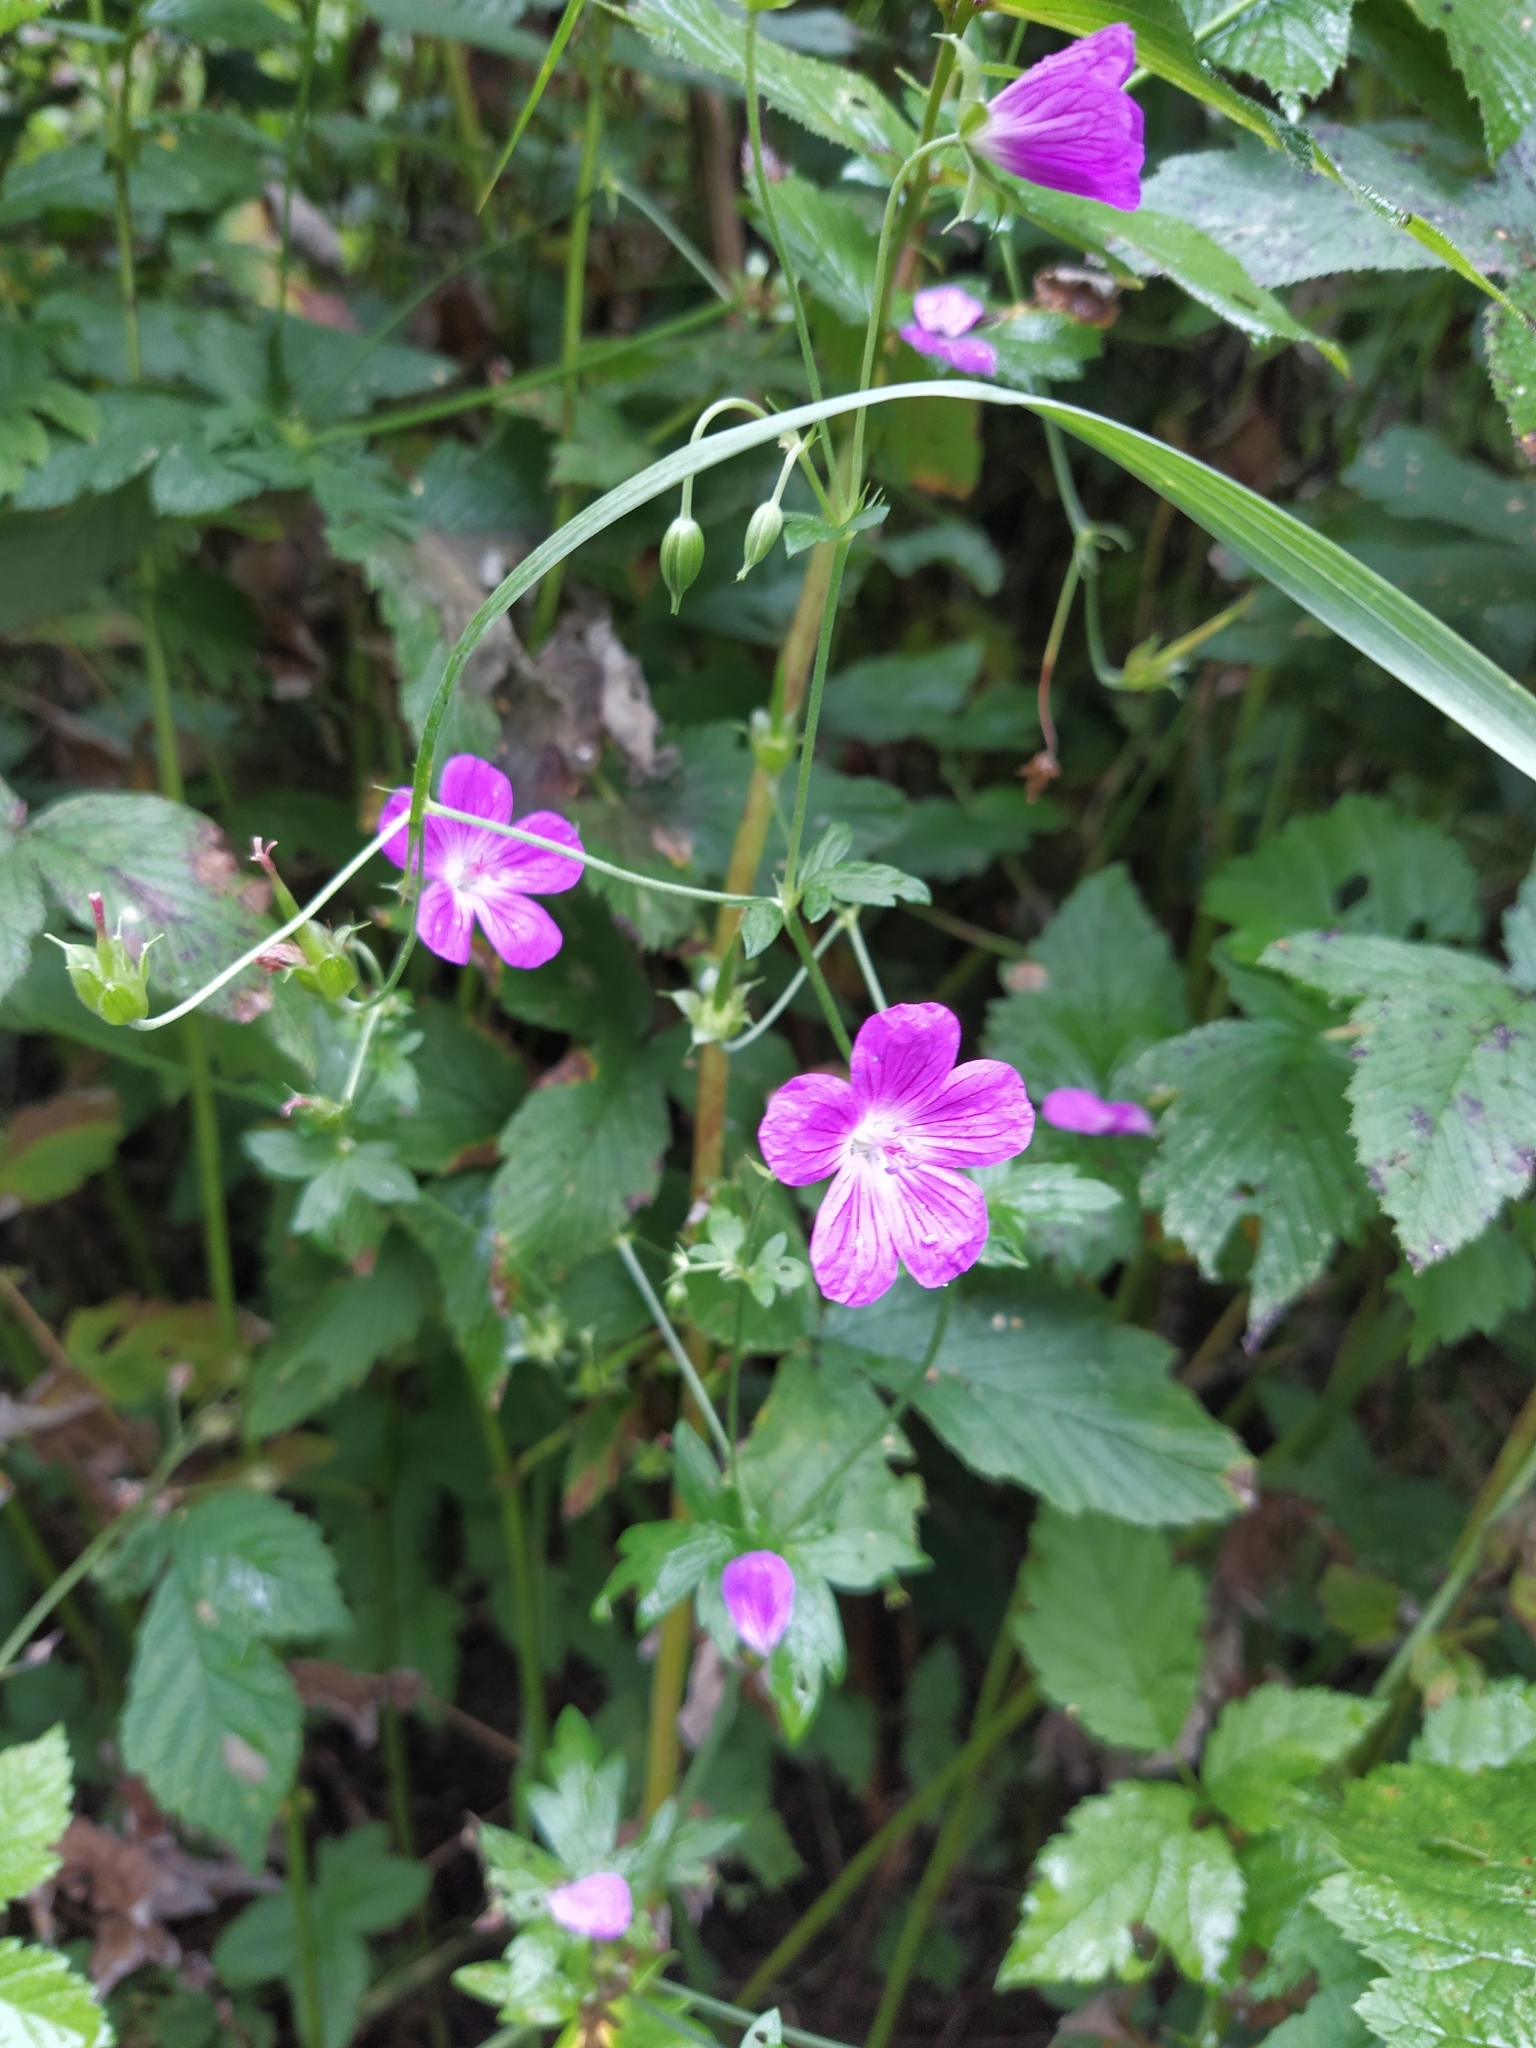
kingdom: Plantae
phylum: Tracheophyta
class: Magnoliopsida
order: Geraniales
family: Geraniaceae
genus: Geranium
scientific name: Geranium palustre
